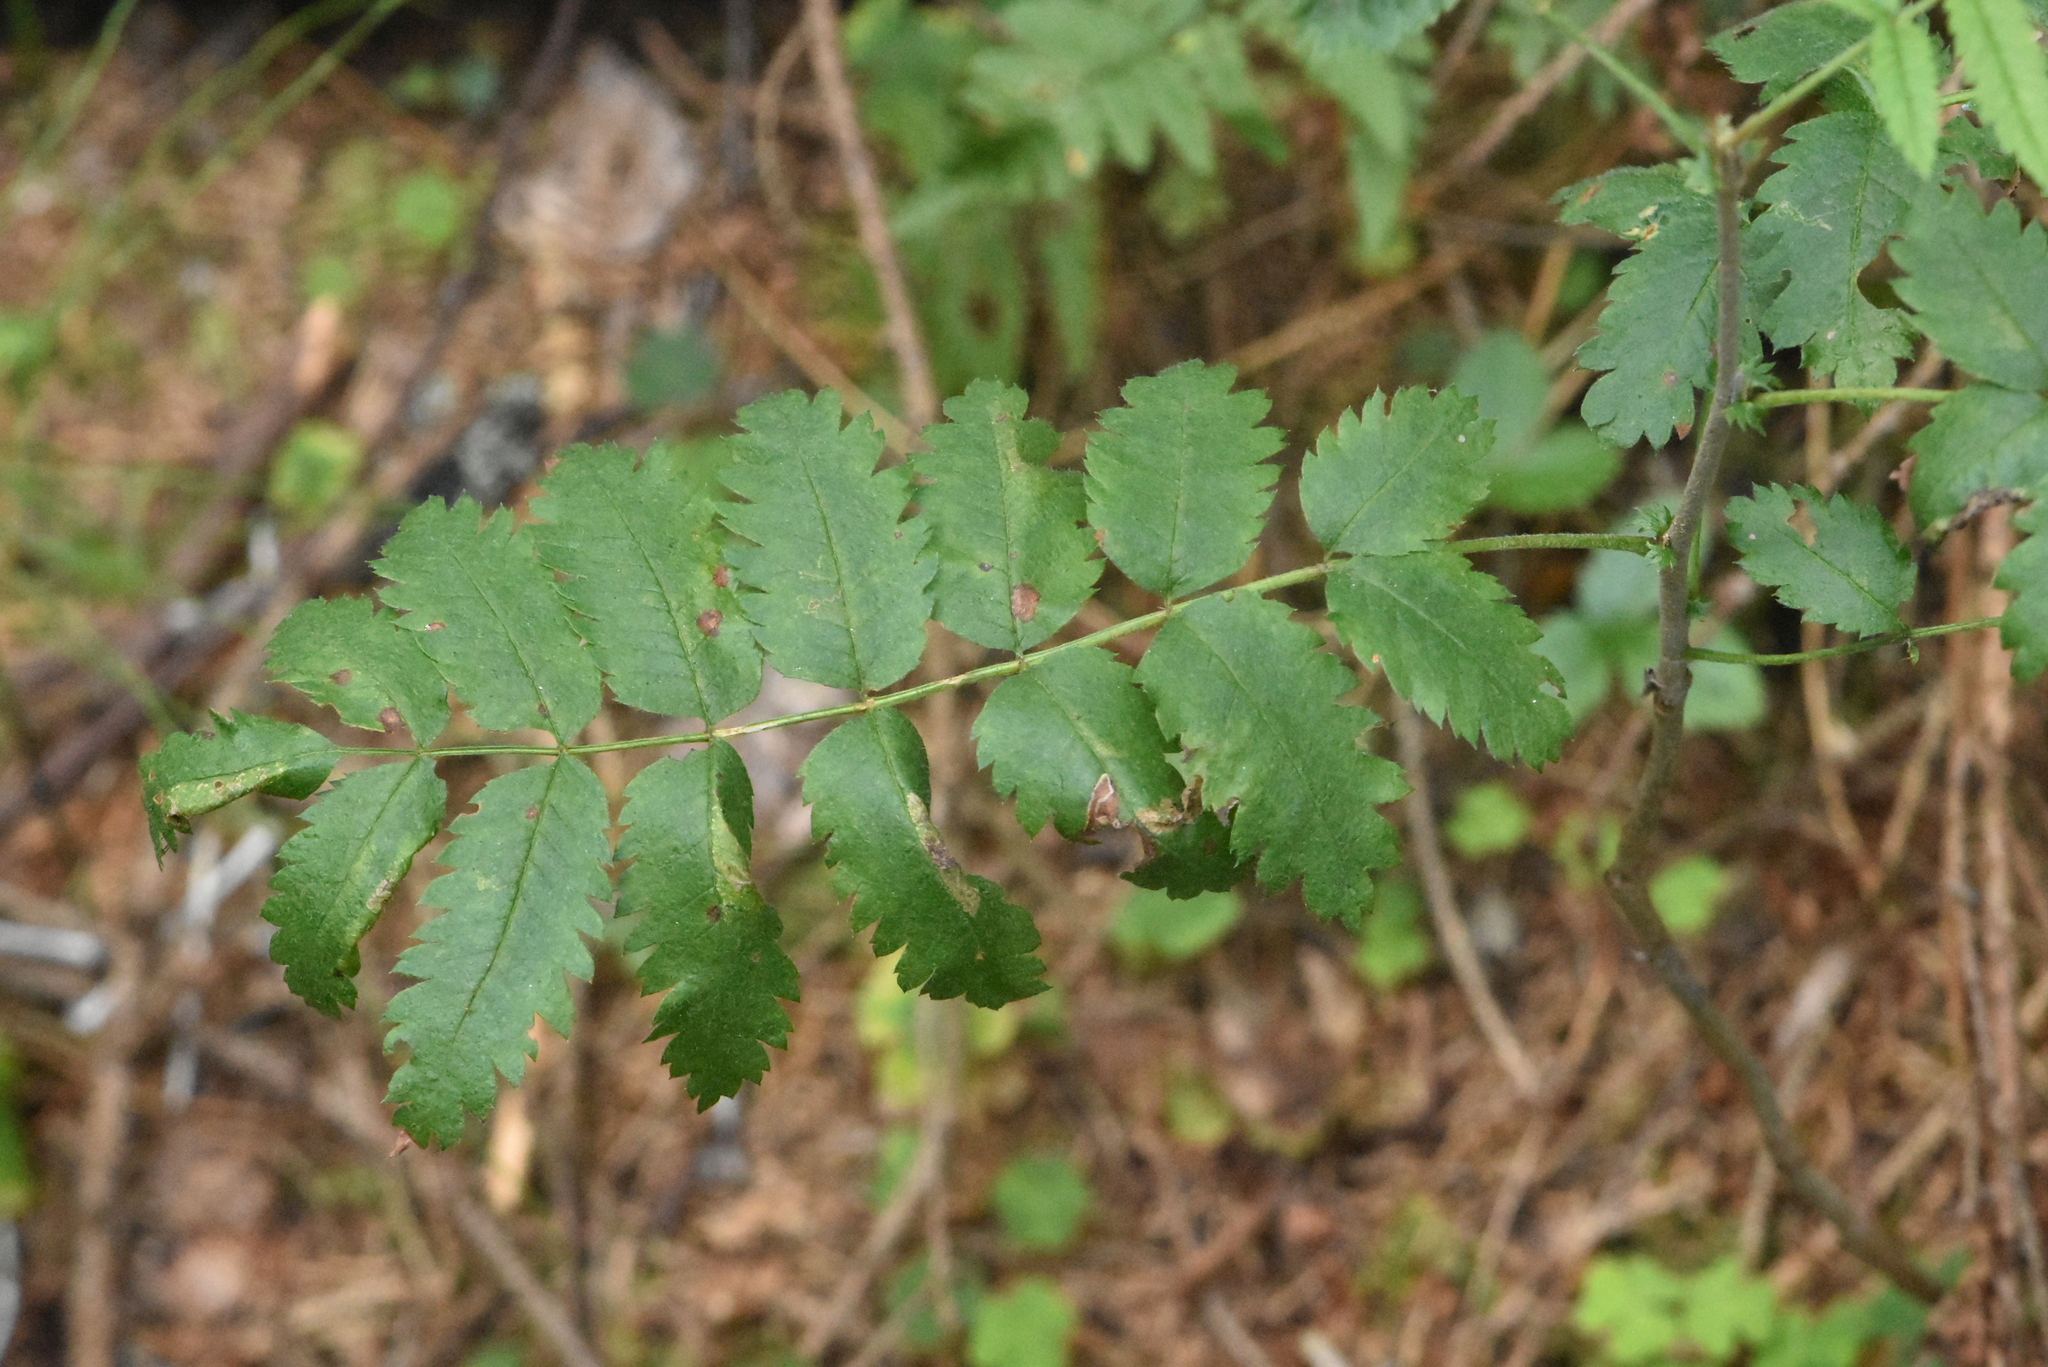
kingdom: Plantae
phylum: Tracheophyta
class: Magnoliopsida
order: Rosales
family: Rosaceae
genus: Sorbus
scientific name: Sorbus aucuparia
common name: Rowan
